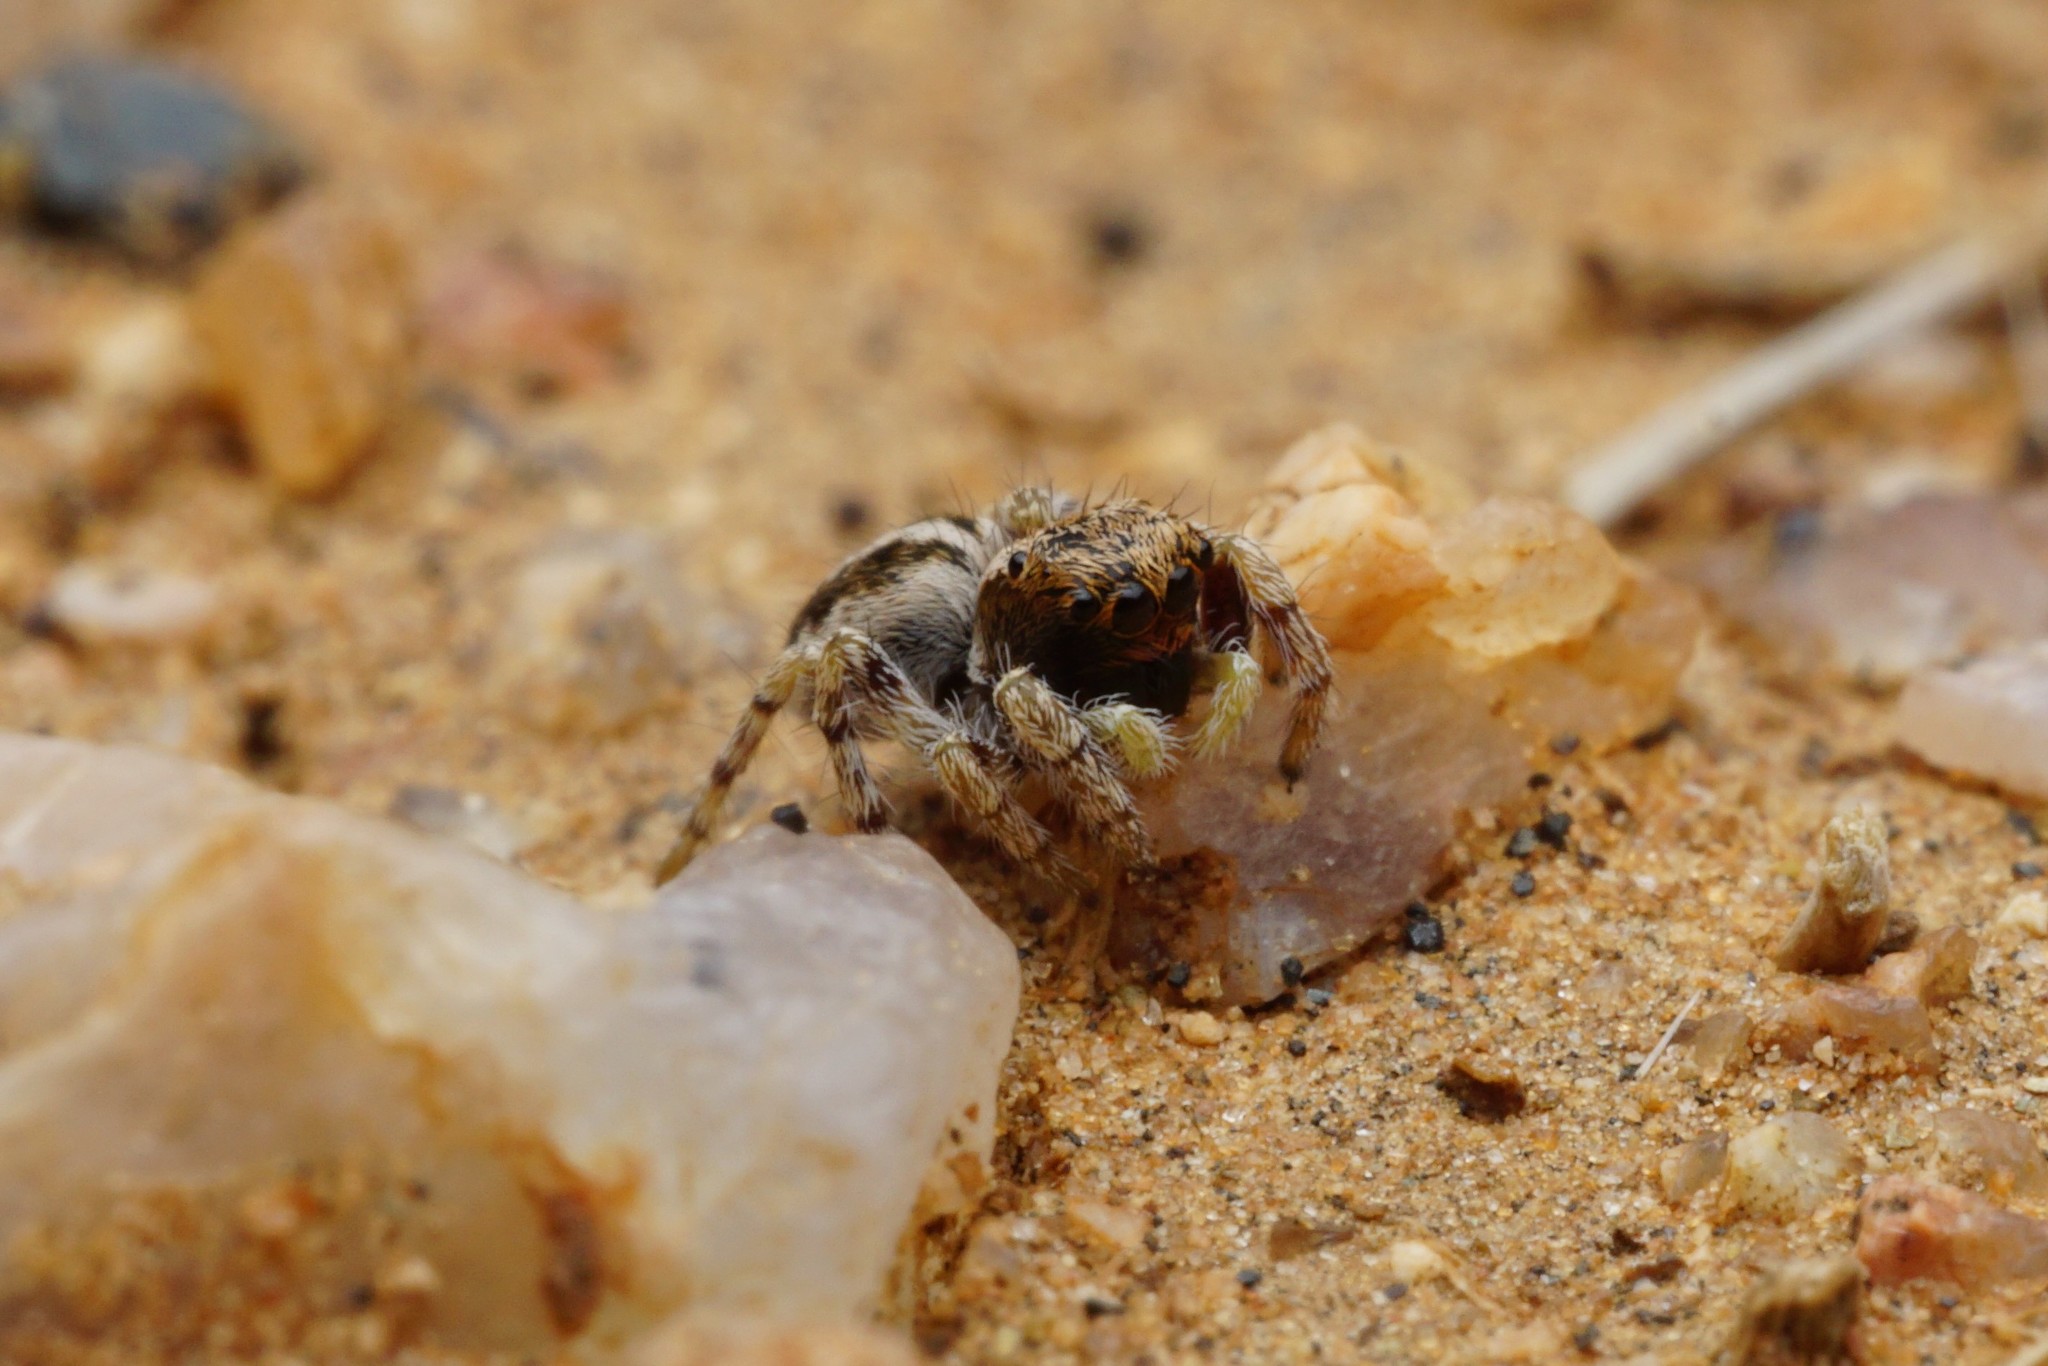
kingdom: Animalia
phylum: Arthropoda
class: Arachnida
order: Araneae
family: Salticidae
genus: Pellenes
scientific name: Pellenes
